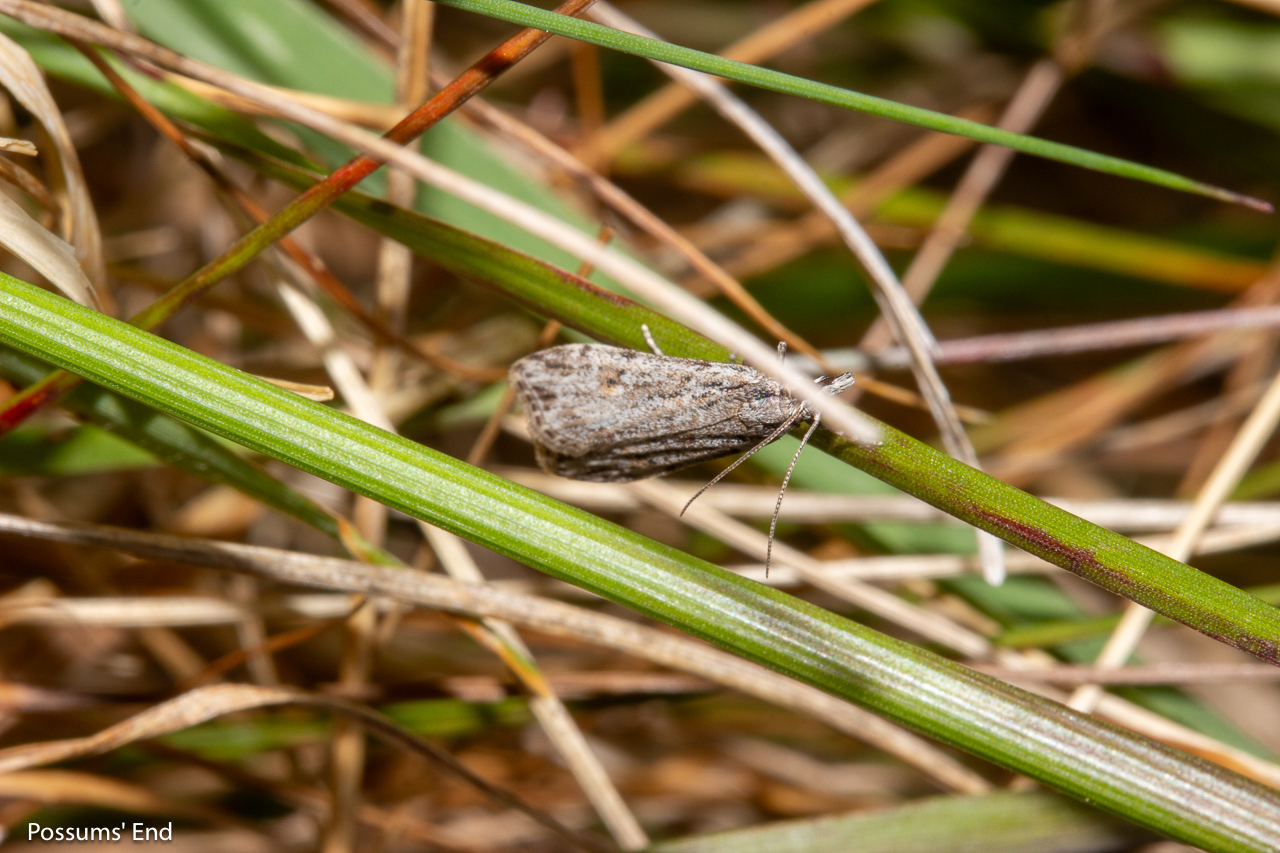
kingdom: Animalia
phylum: Arthropoda
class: Insecta
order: Lepidoptera
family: Crambidae
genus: Scoparia
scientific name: Scoparia chalicodes
